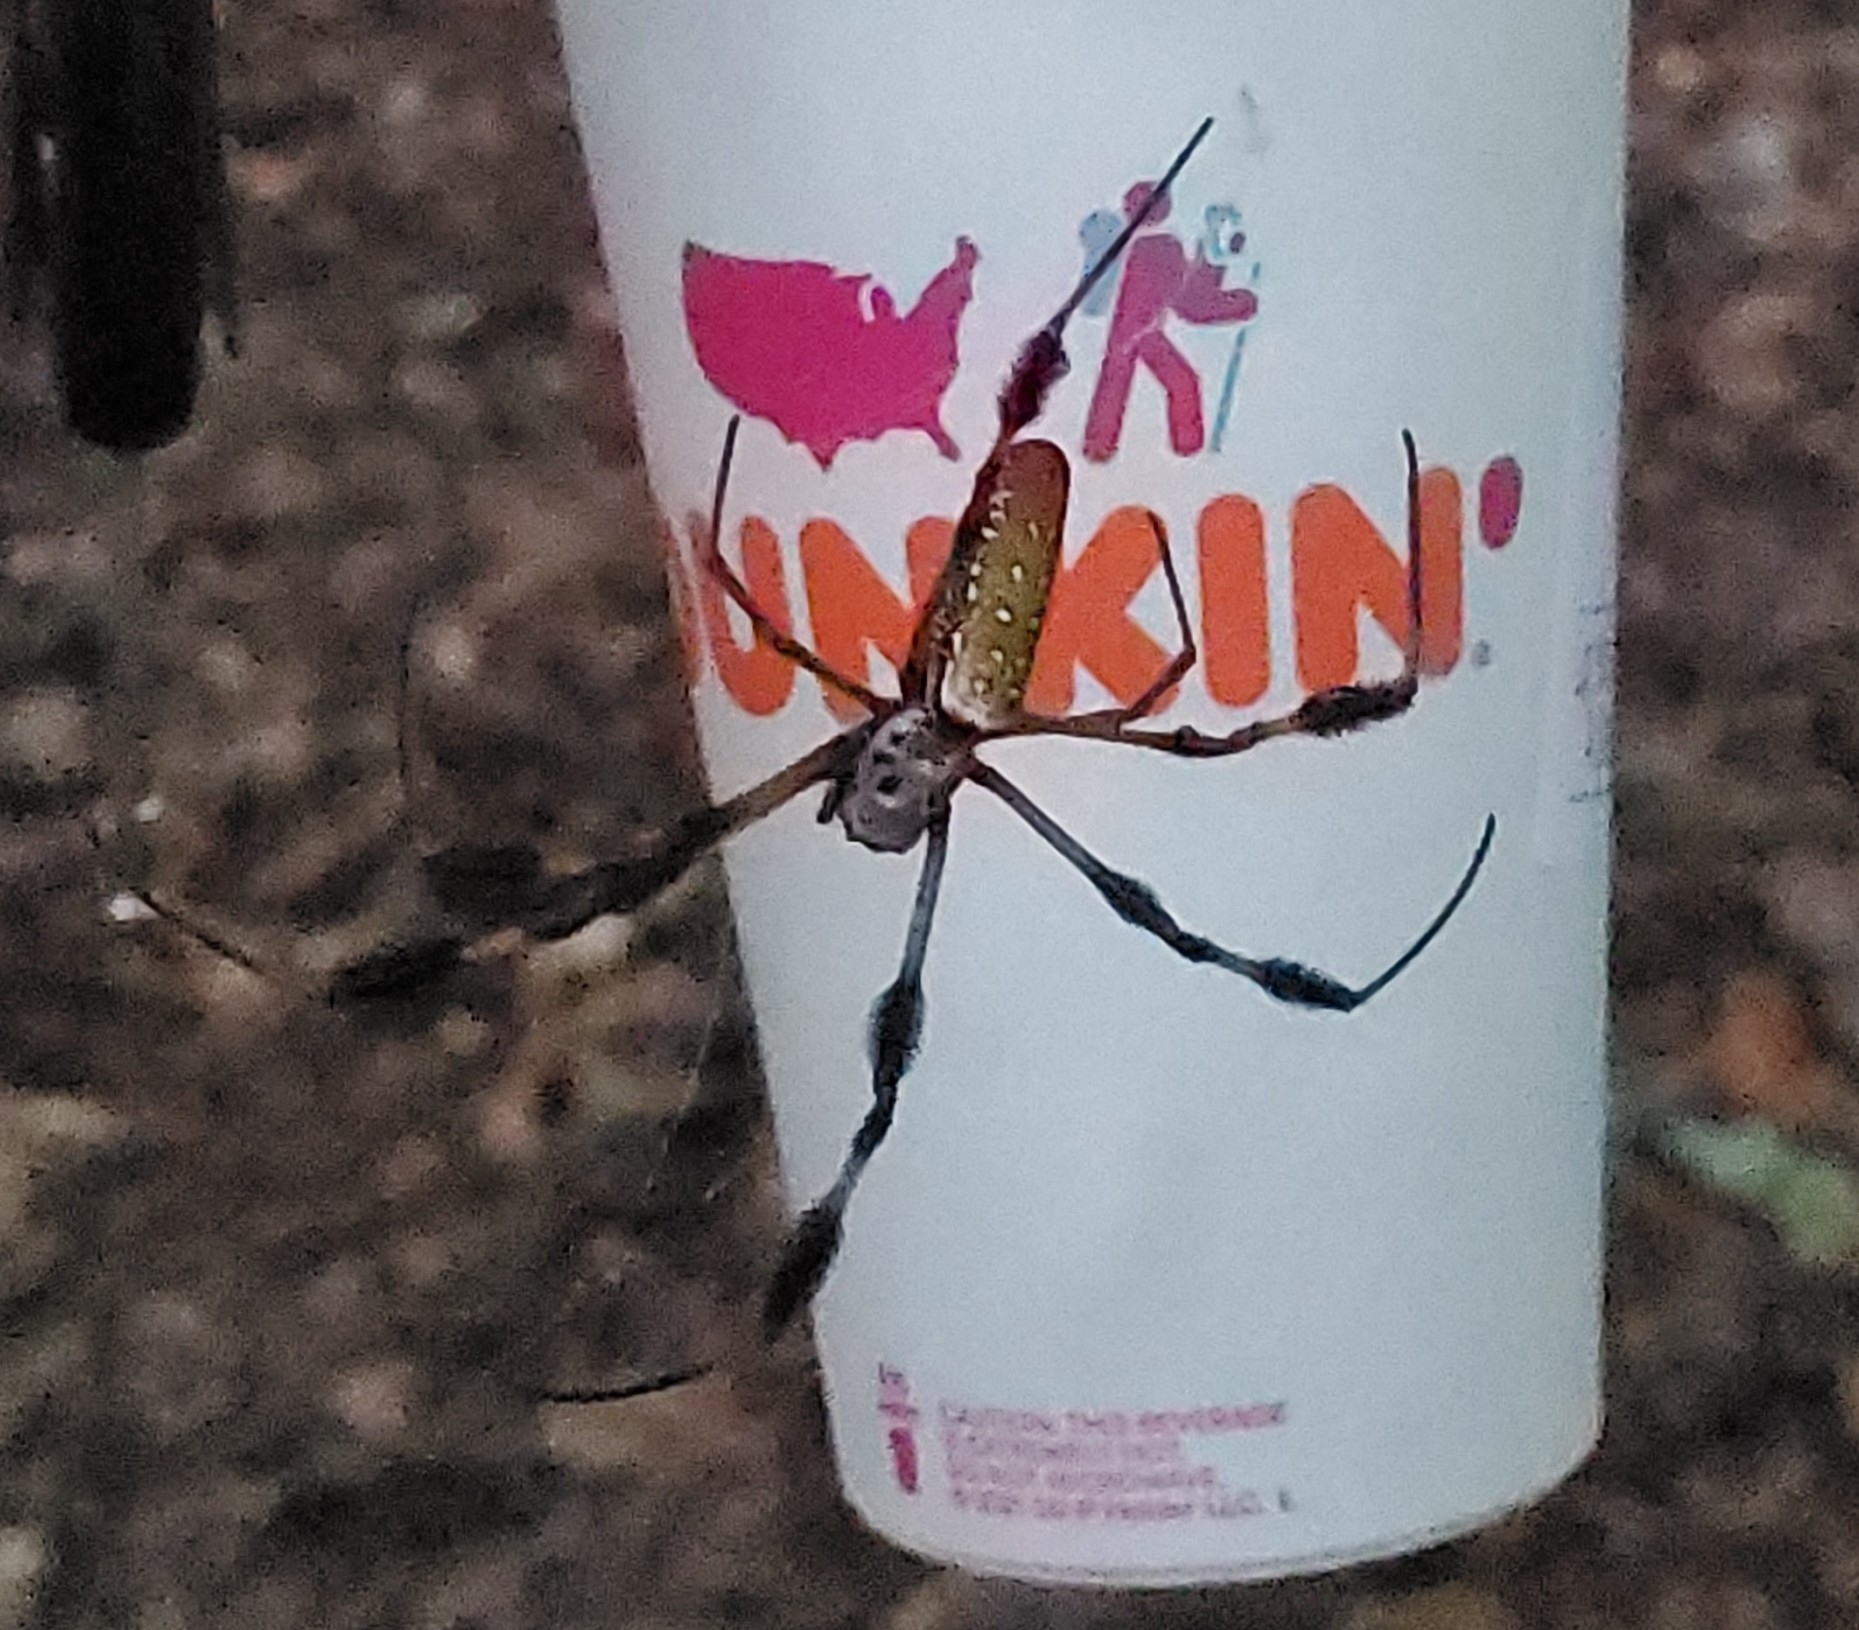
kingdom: Animalia
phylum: Arthropoda
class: Arachnida
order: Araneae
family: Araneidae
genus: Trichonephila
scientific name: Trichonephila clavipes
